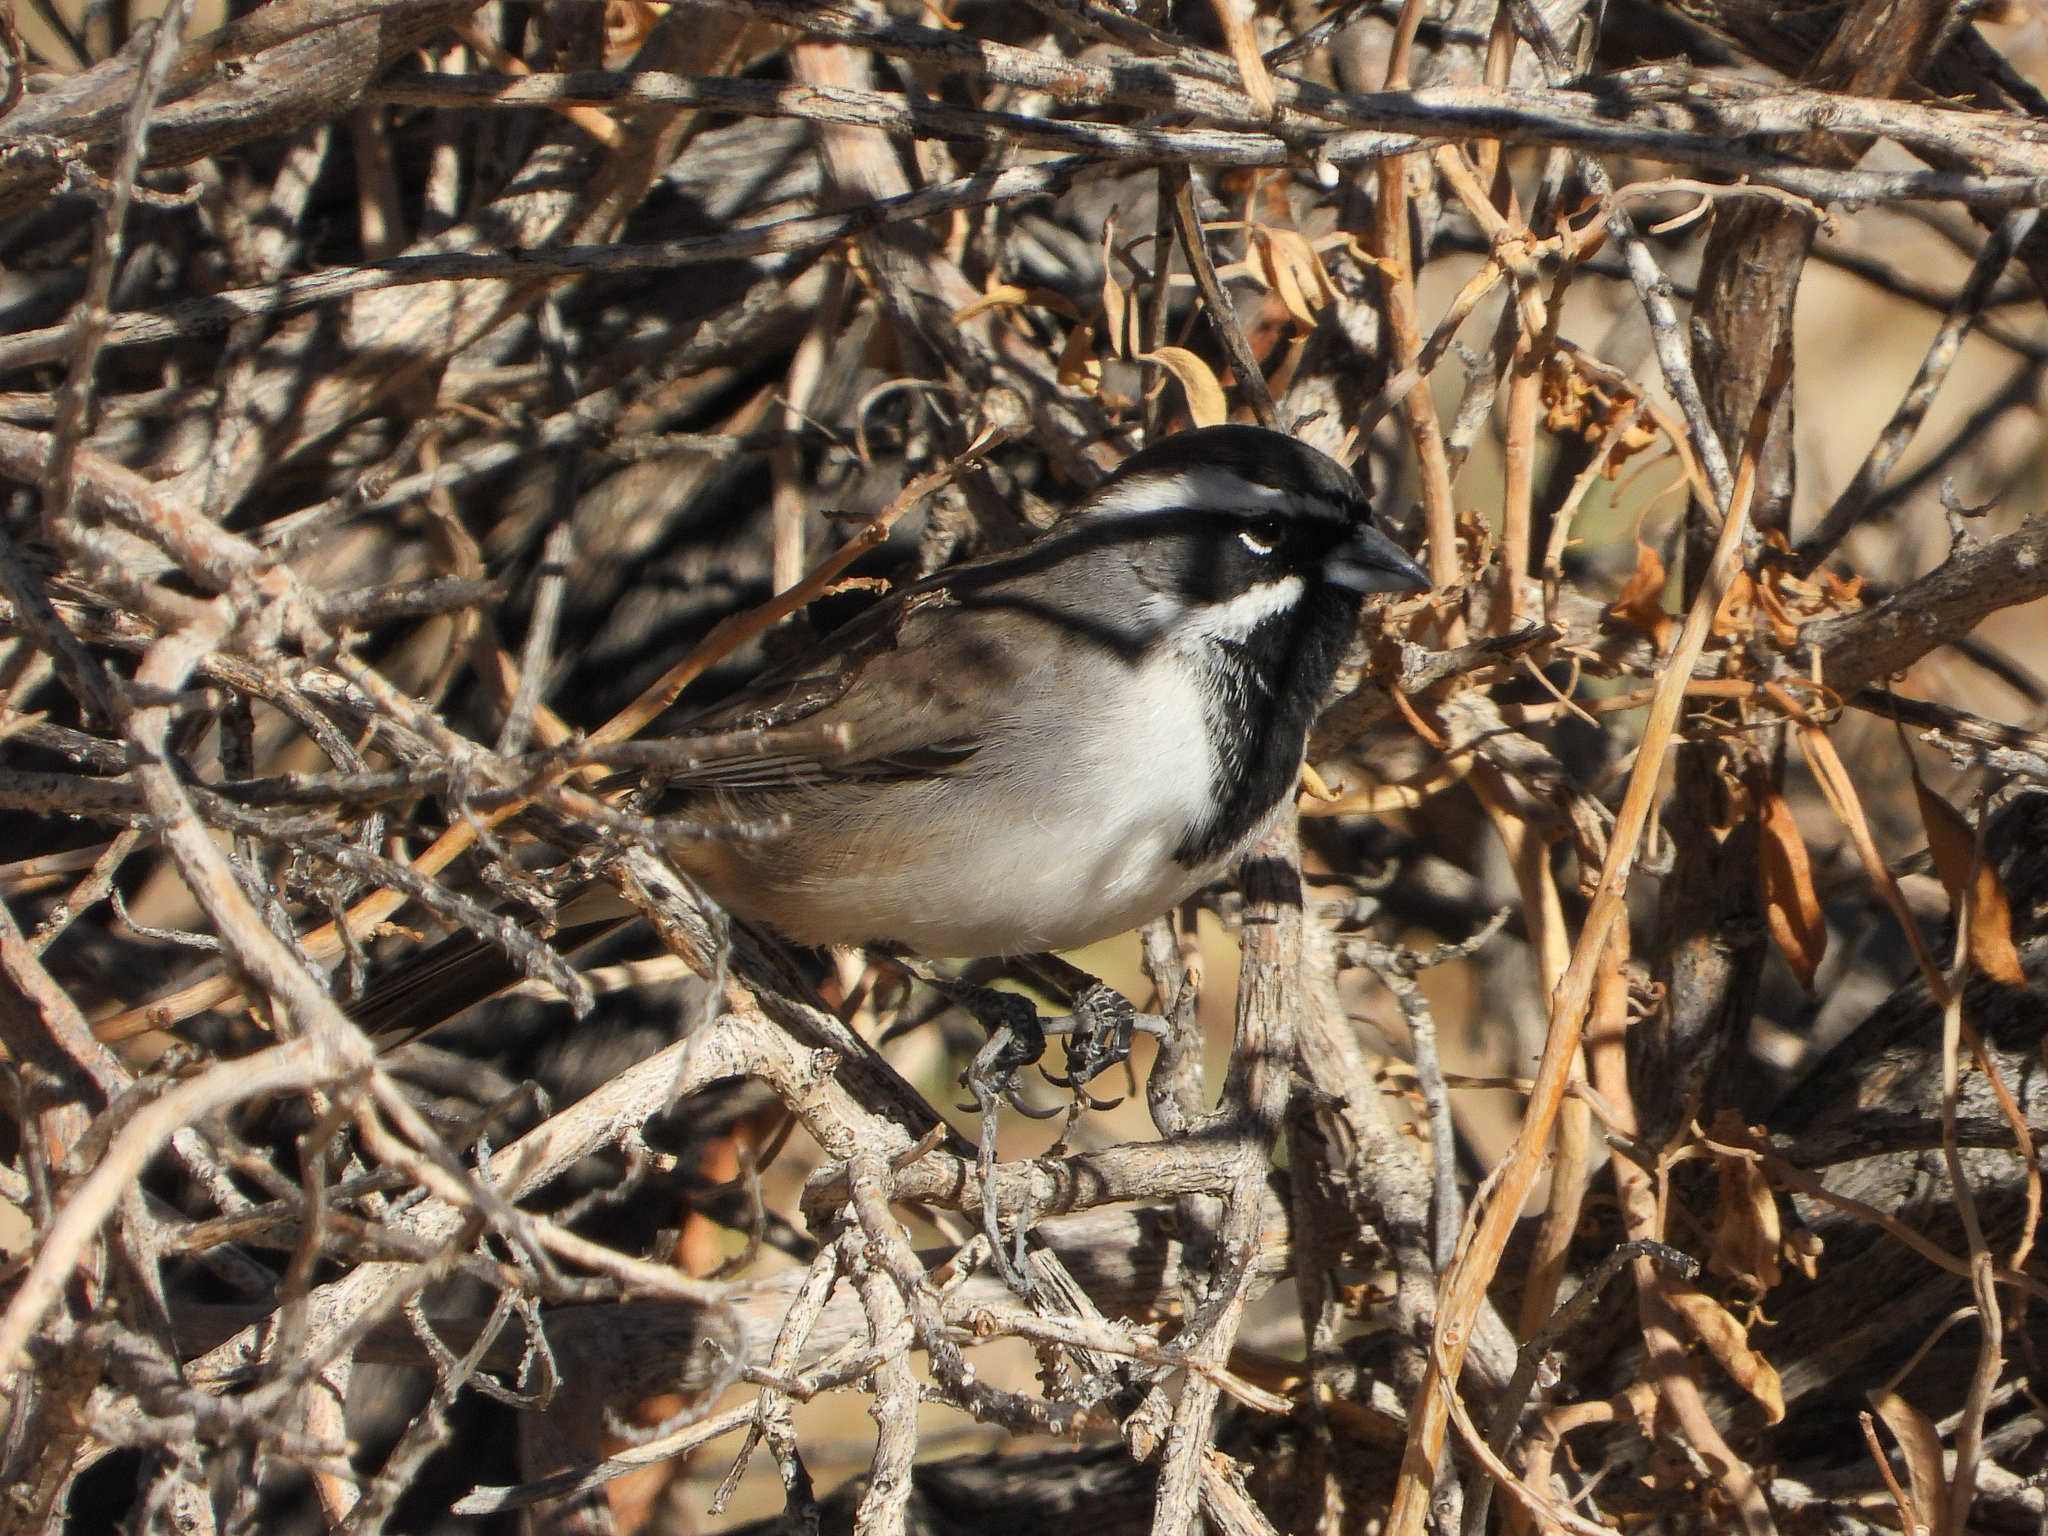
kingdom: Animalia
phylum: Chordata
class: Aves
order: Passeriformes
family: Passerellidae
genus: Amphispiza
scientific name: Amphispiza bilineata
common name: Black-throated sparrow
